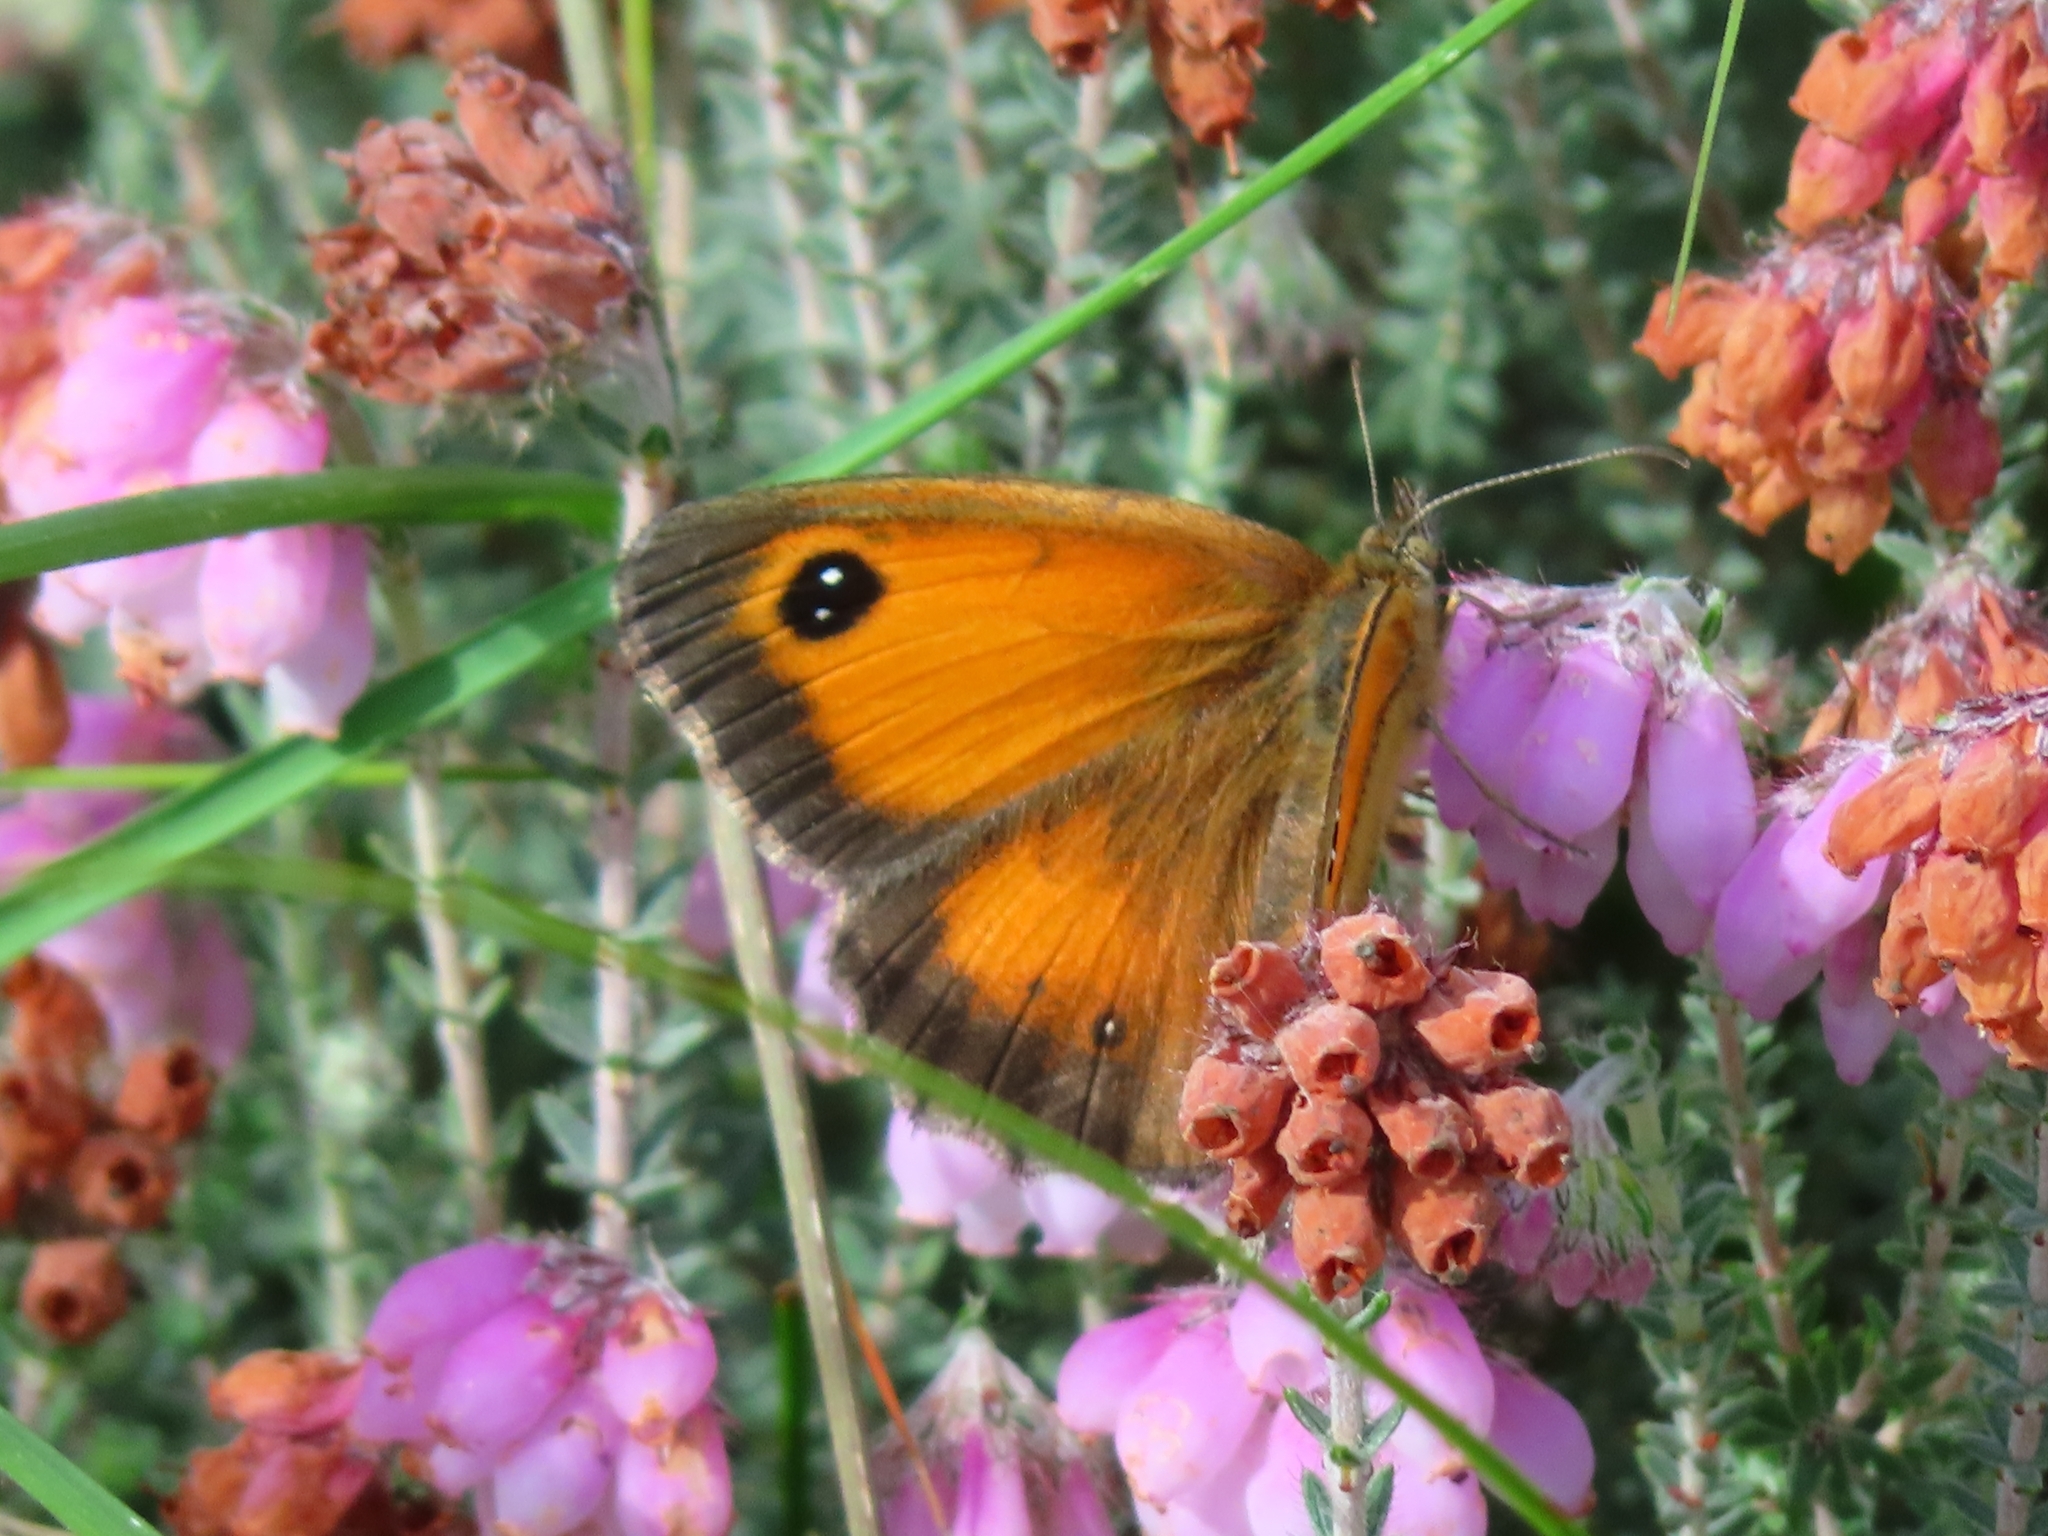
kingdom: Animalia
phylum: Arthropoda
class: Insecta
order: Lepidoptera
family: Nymphalidae
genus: Pyronia
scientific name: Pyronia tithonus
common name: Gatekeeper
